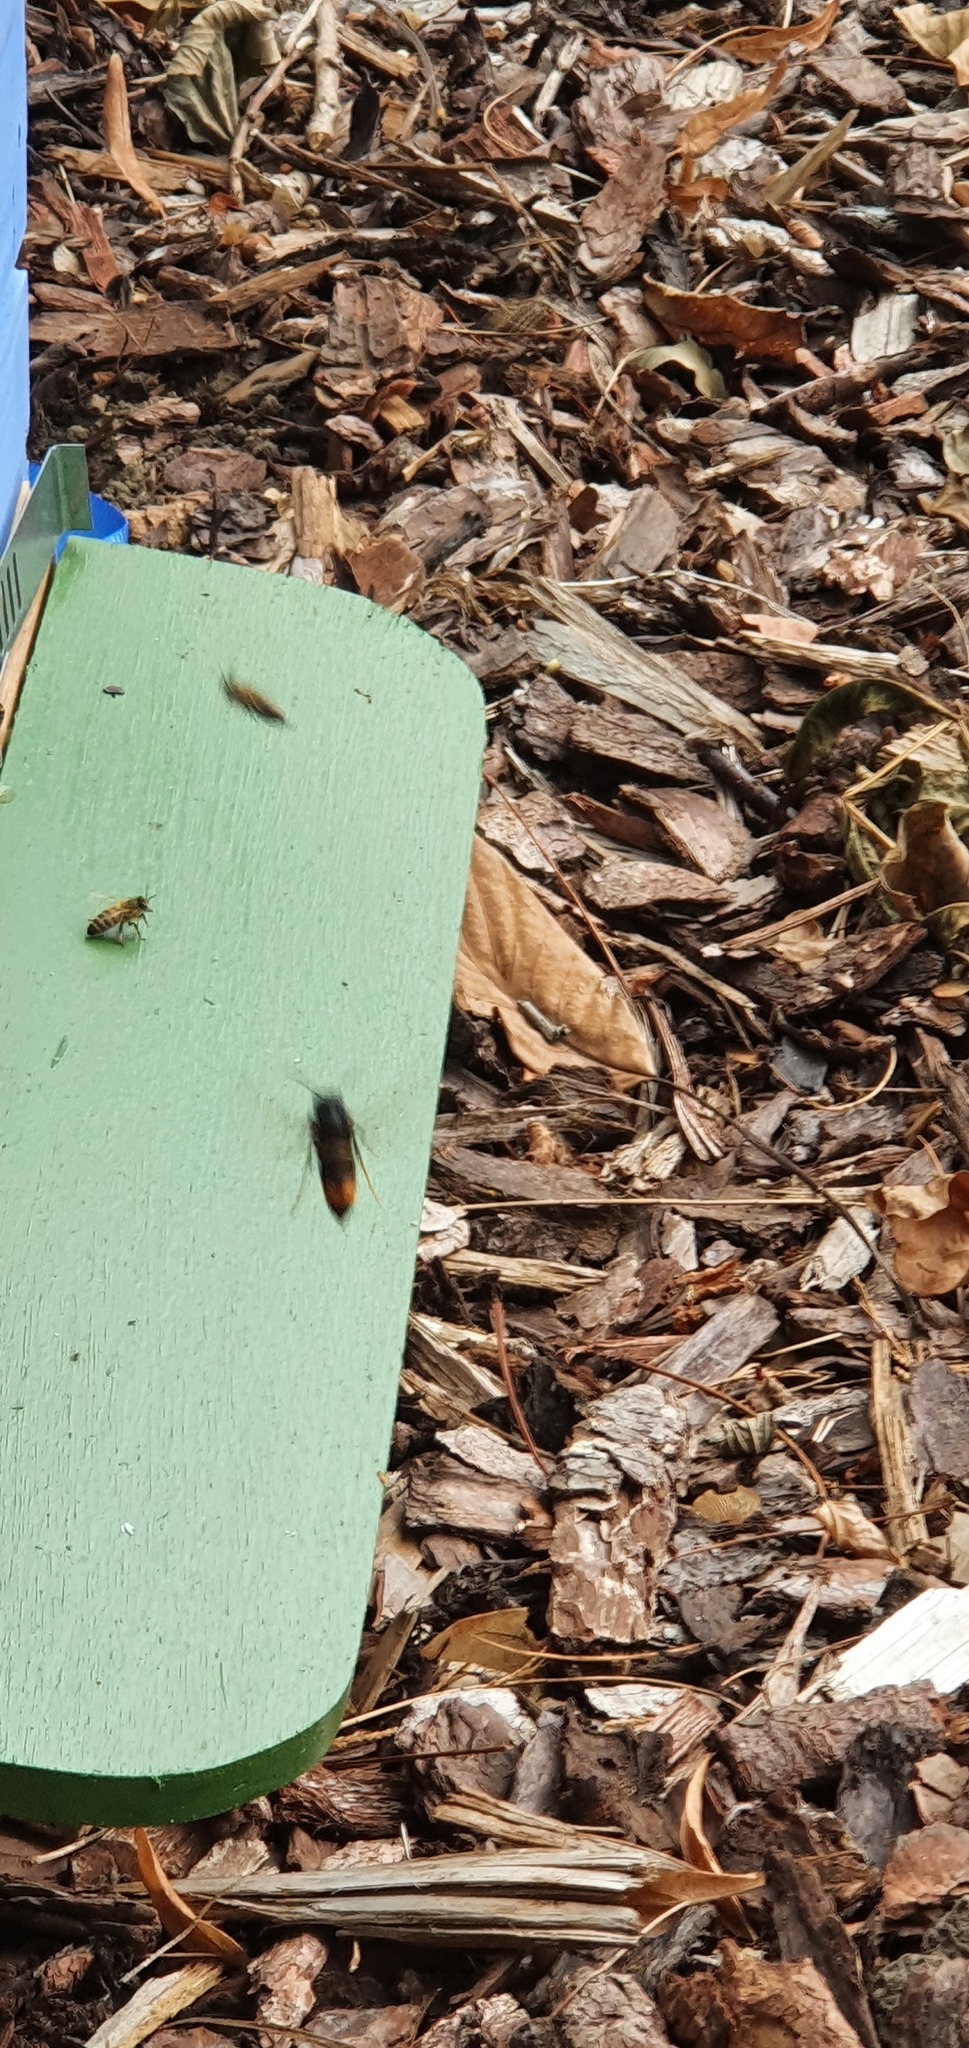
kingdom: Animalia
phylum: Arthropoda
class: Insecta
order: Hymenoptera
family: Vespidae
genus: Vespa
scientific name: Vespa velutina
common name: Asian hornet
